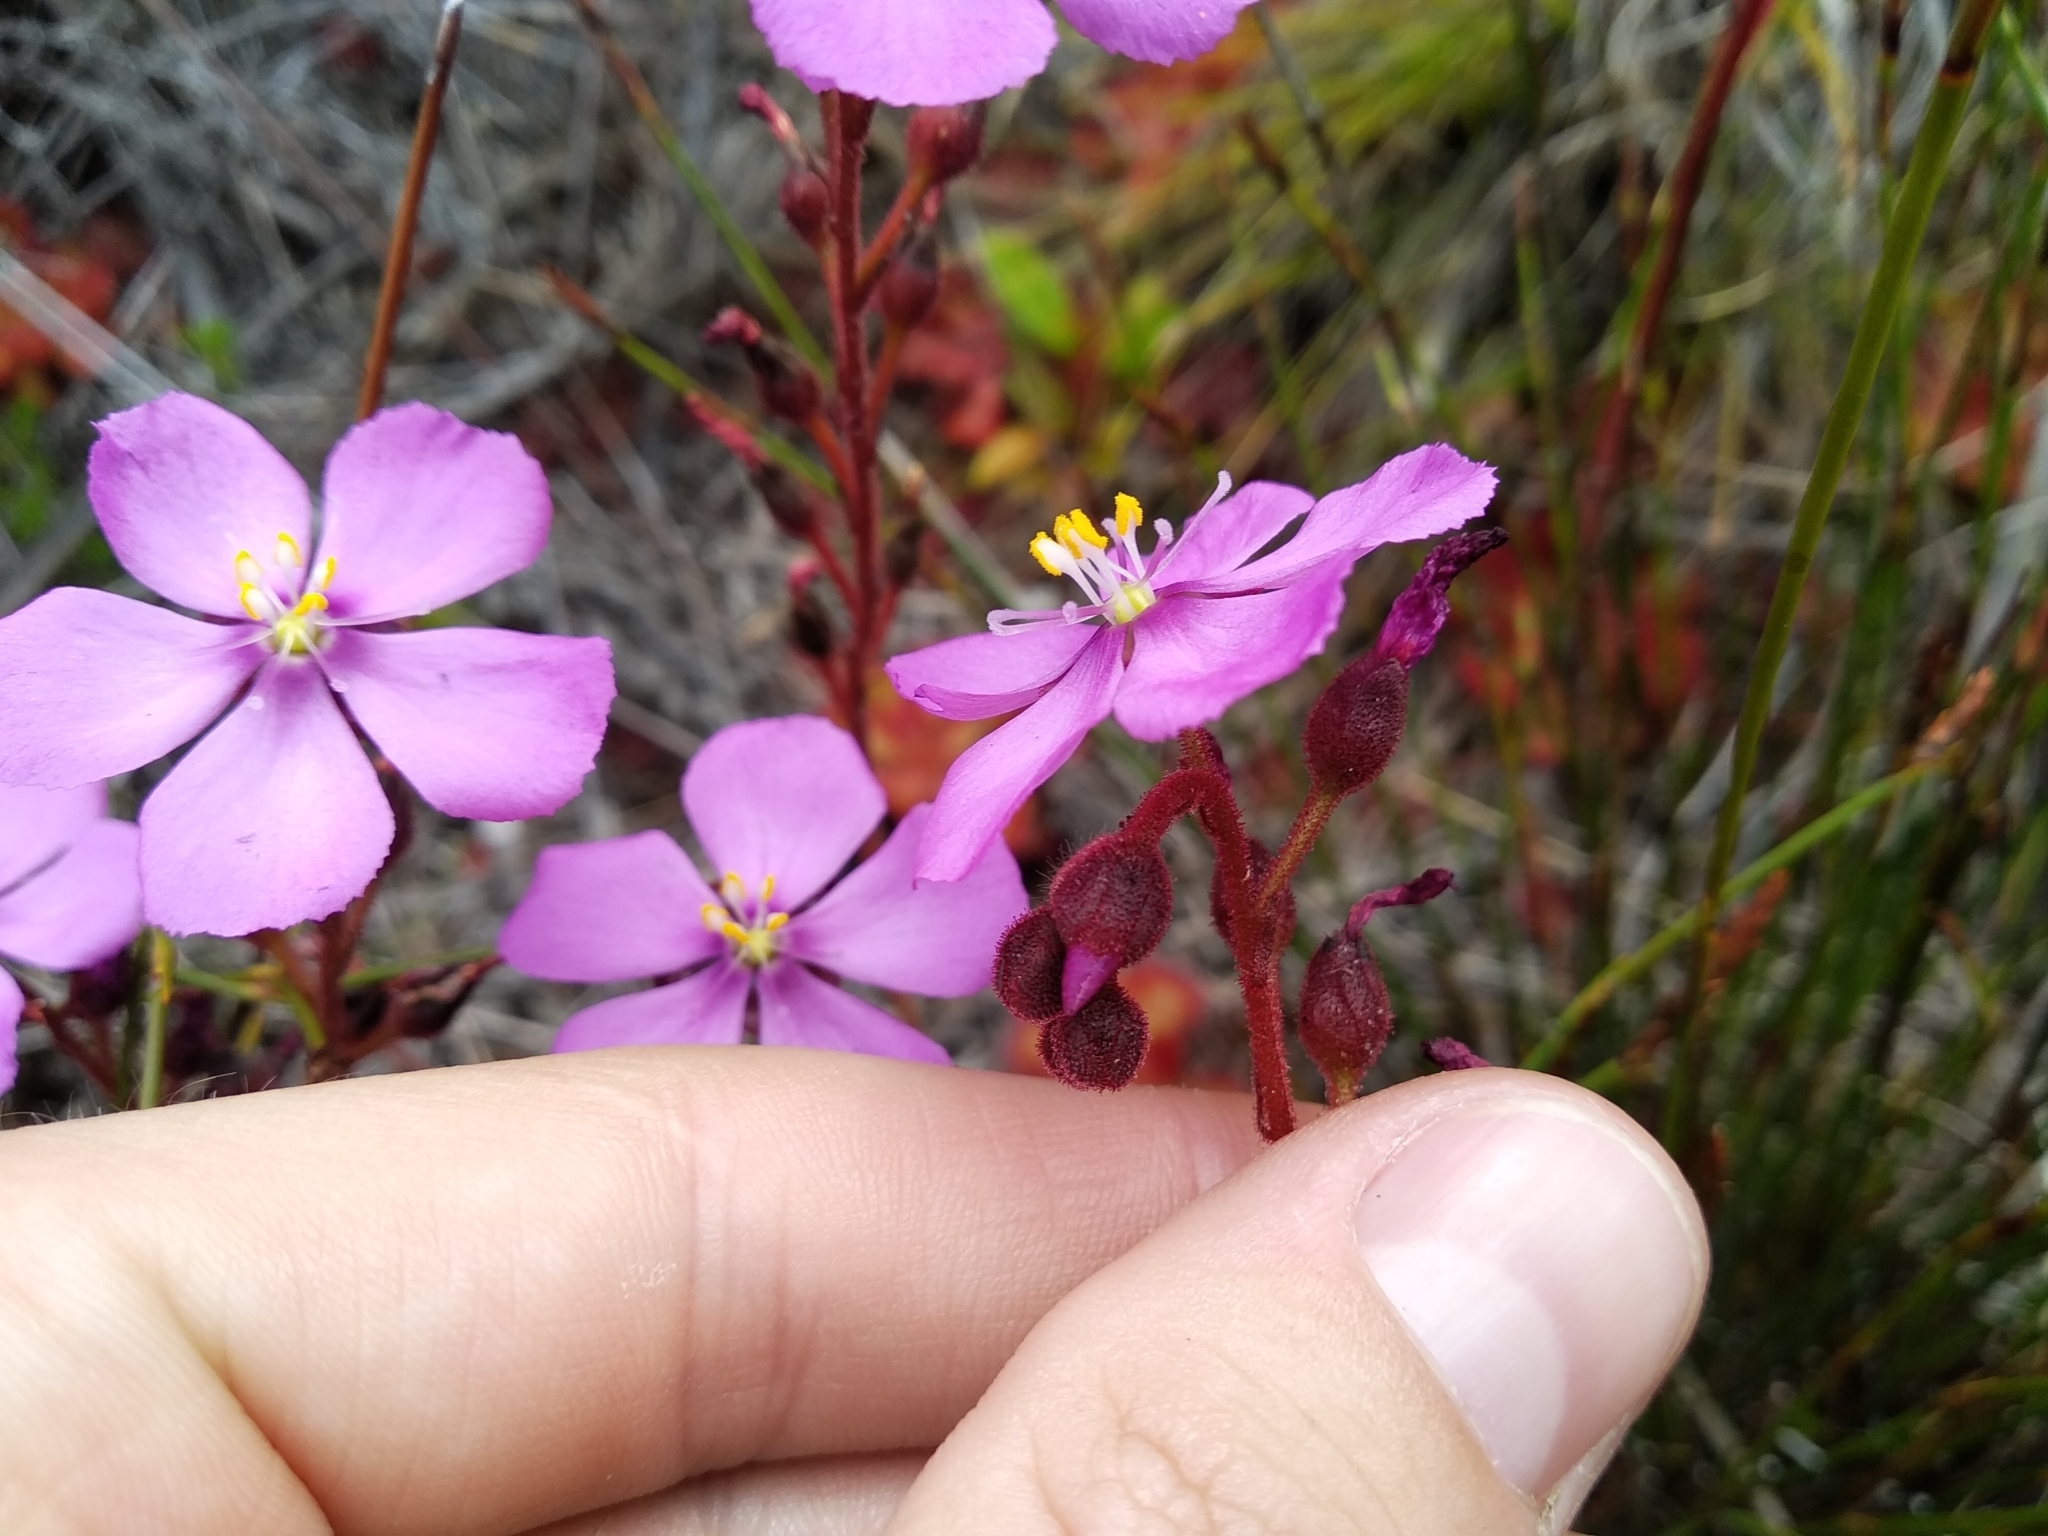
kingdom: Plantae
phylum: Tracheophyta
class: Magnoliopsida
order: Caryophyllales
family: Droseraceae
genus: Drosera
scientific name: Drosera cuneifolia
